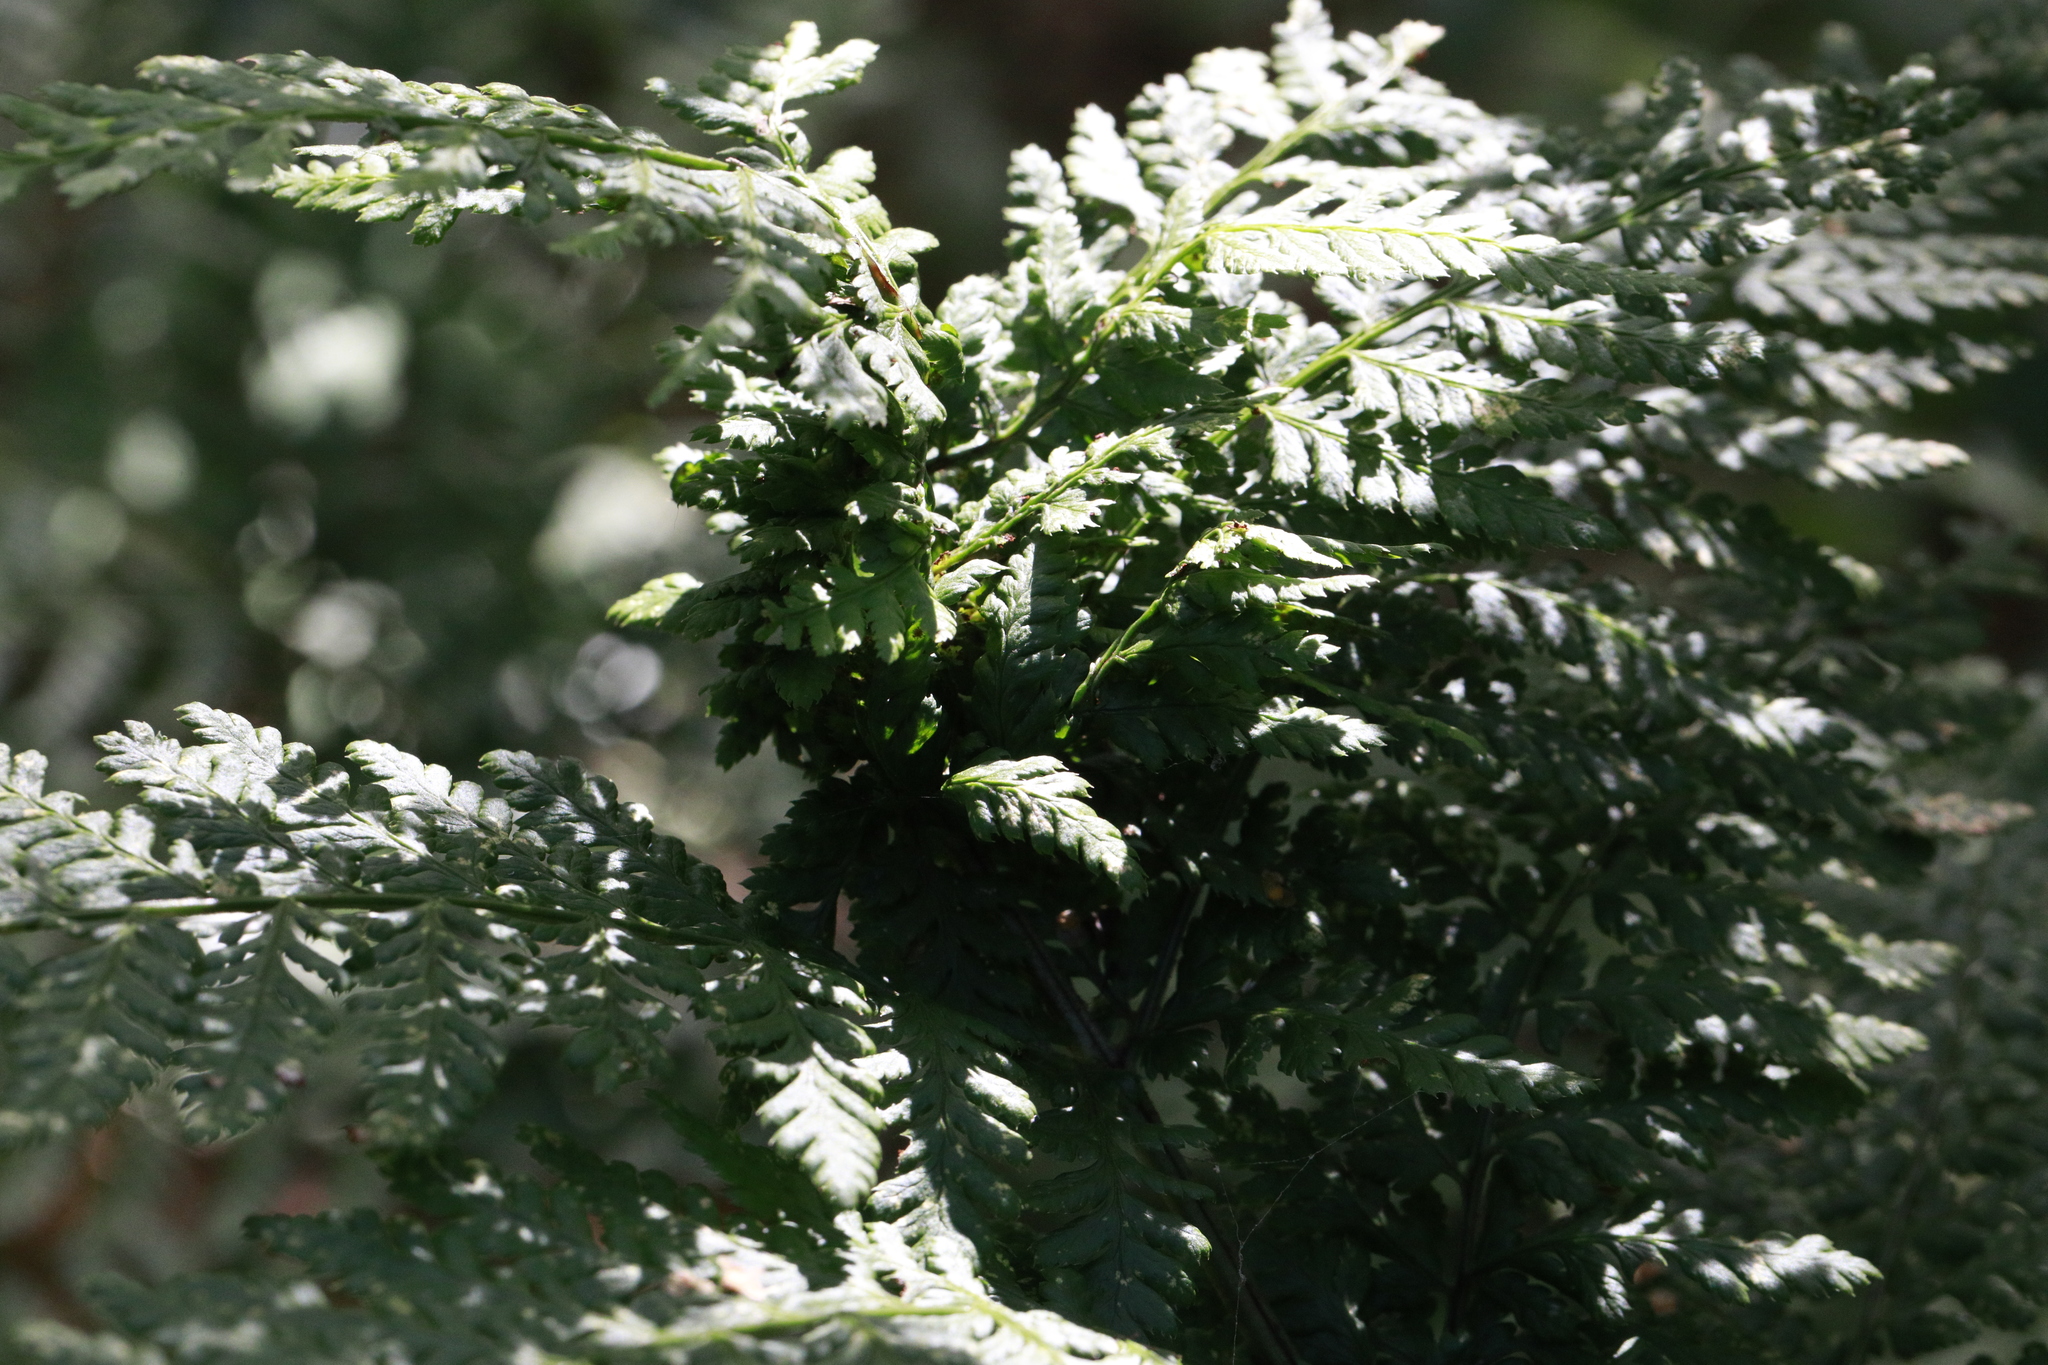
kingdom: Animalia
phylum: Arthropoda
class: Insecta
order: Diptera
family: Anthomyiidae
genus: Chirosia
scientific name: Chirosia betuleti
